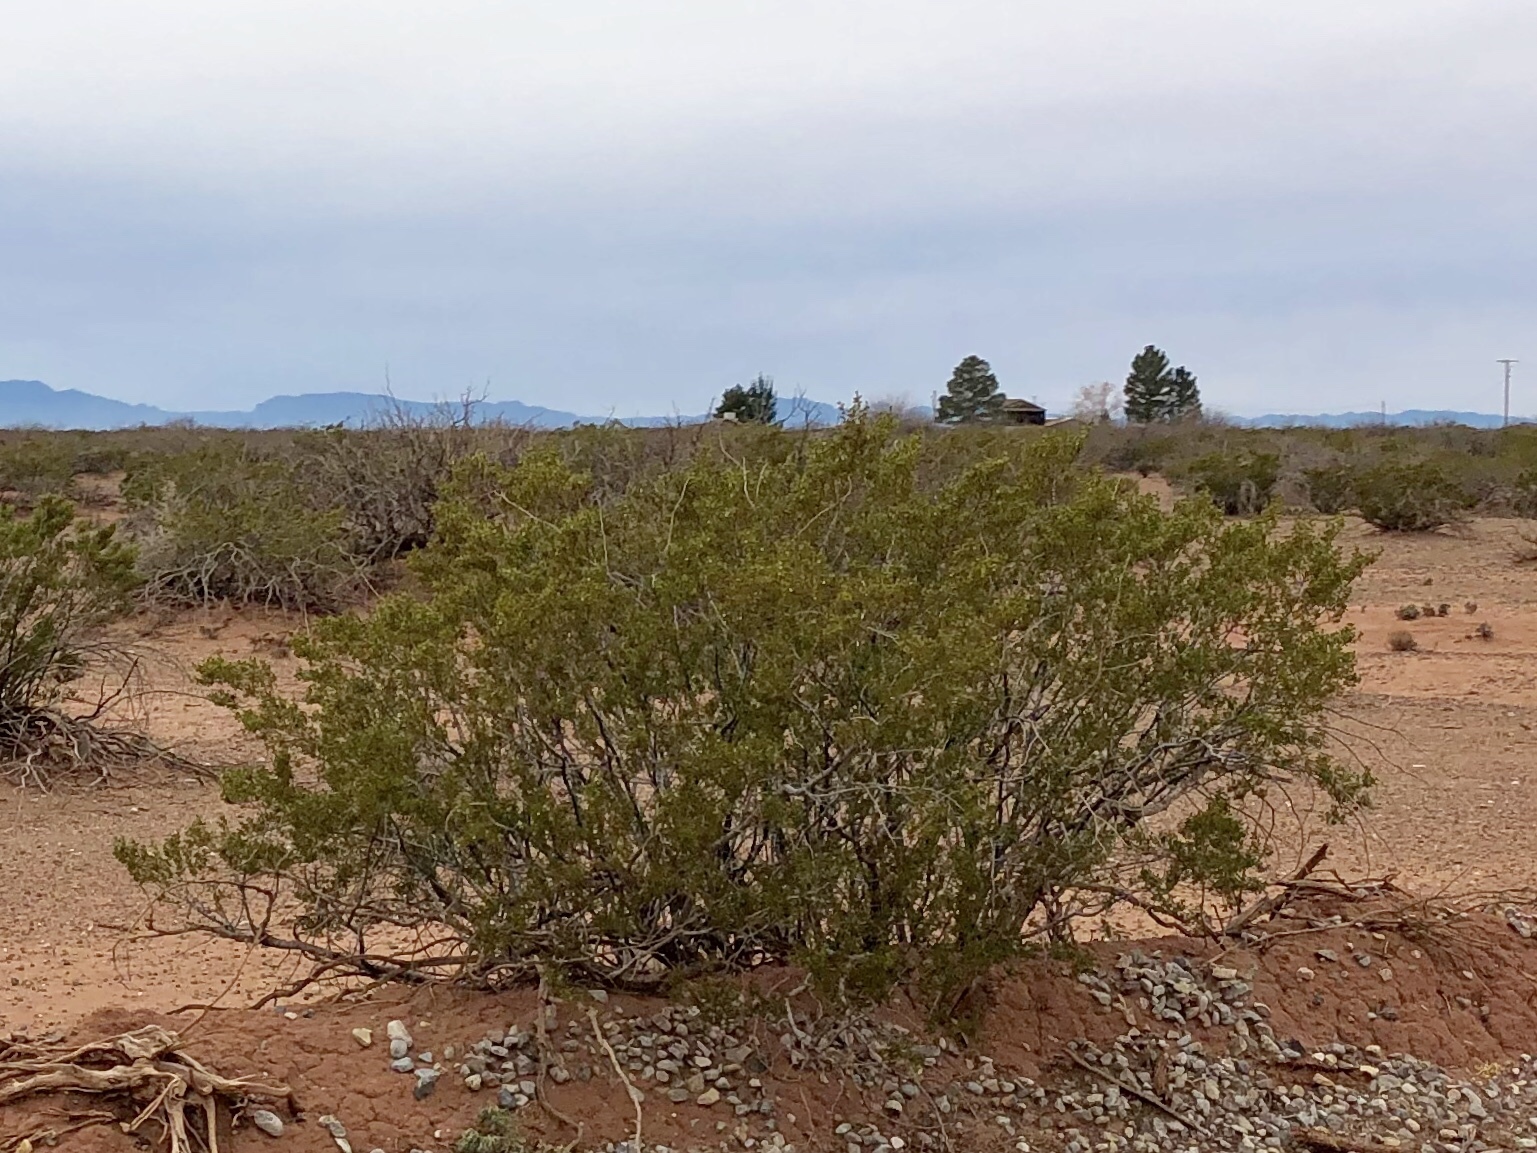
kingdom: Plantae
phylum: Tracheophyta
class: Magnoliopsida
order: Zygophyllales
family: Zygophyllaceae
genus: Larrea
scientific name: Larrea tridentata
